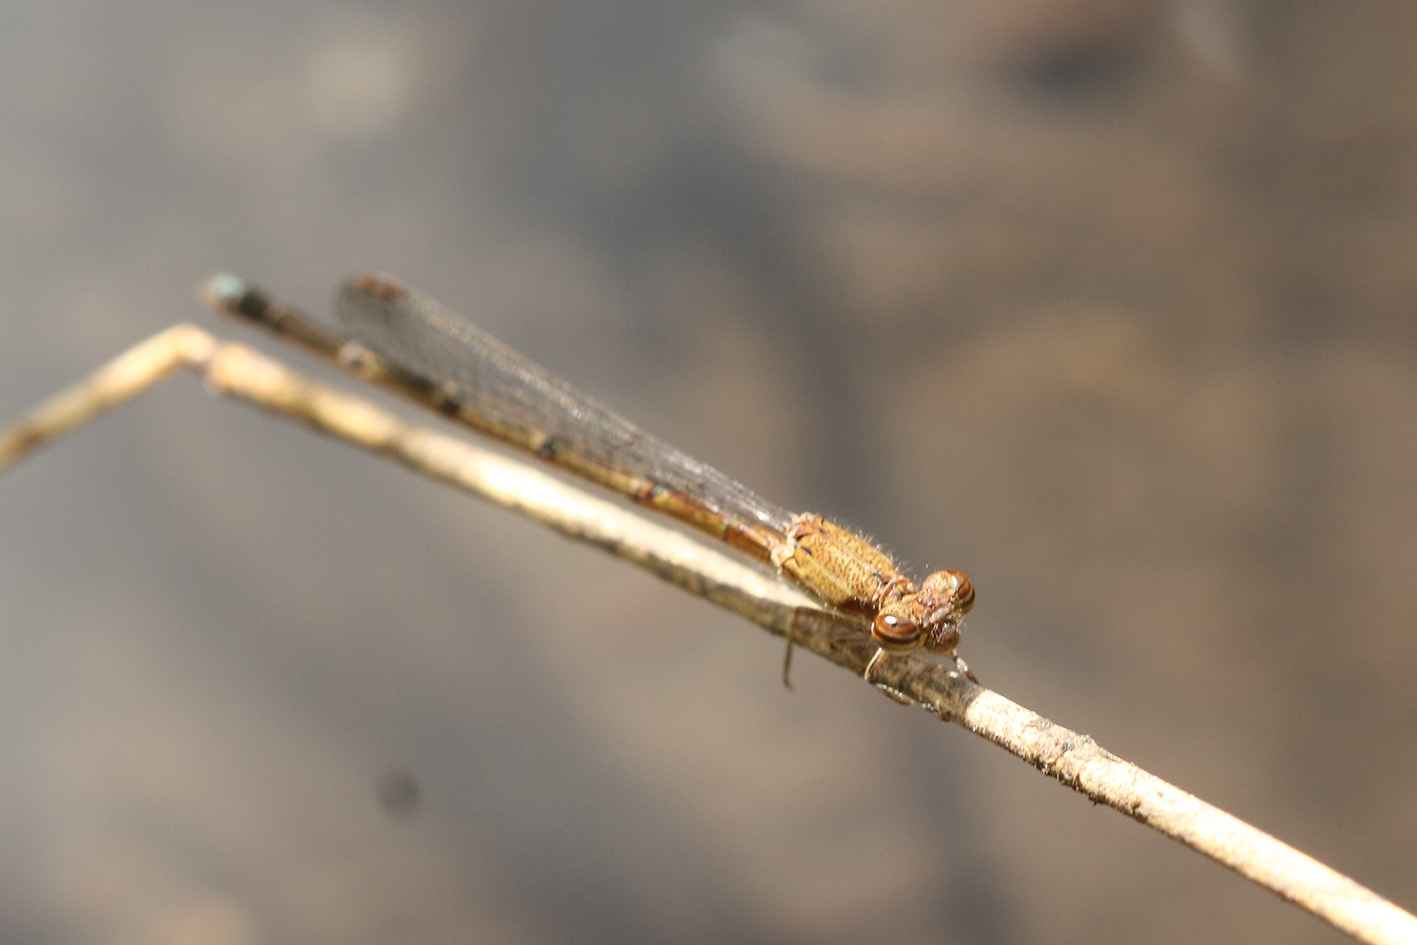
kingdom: Animalia
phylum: Arthropoda
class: Insecta
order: Odonata
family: Coenagrionidae
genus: Oxyagrion
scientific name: Oxyagrion terminale
